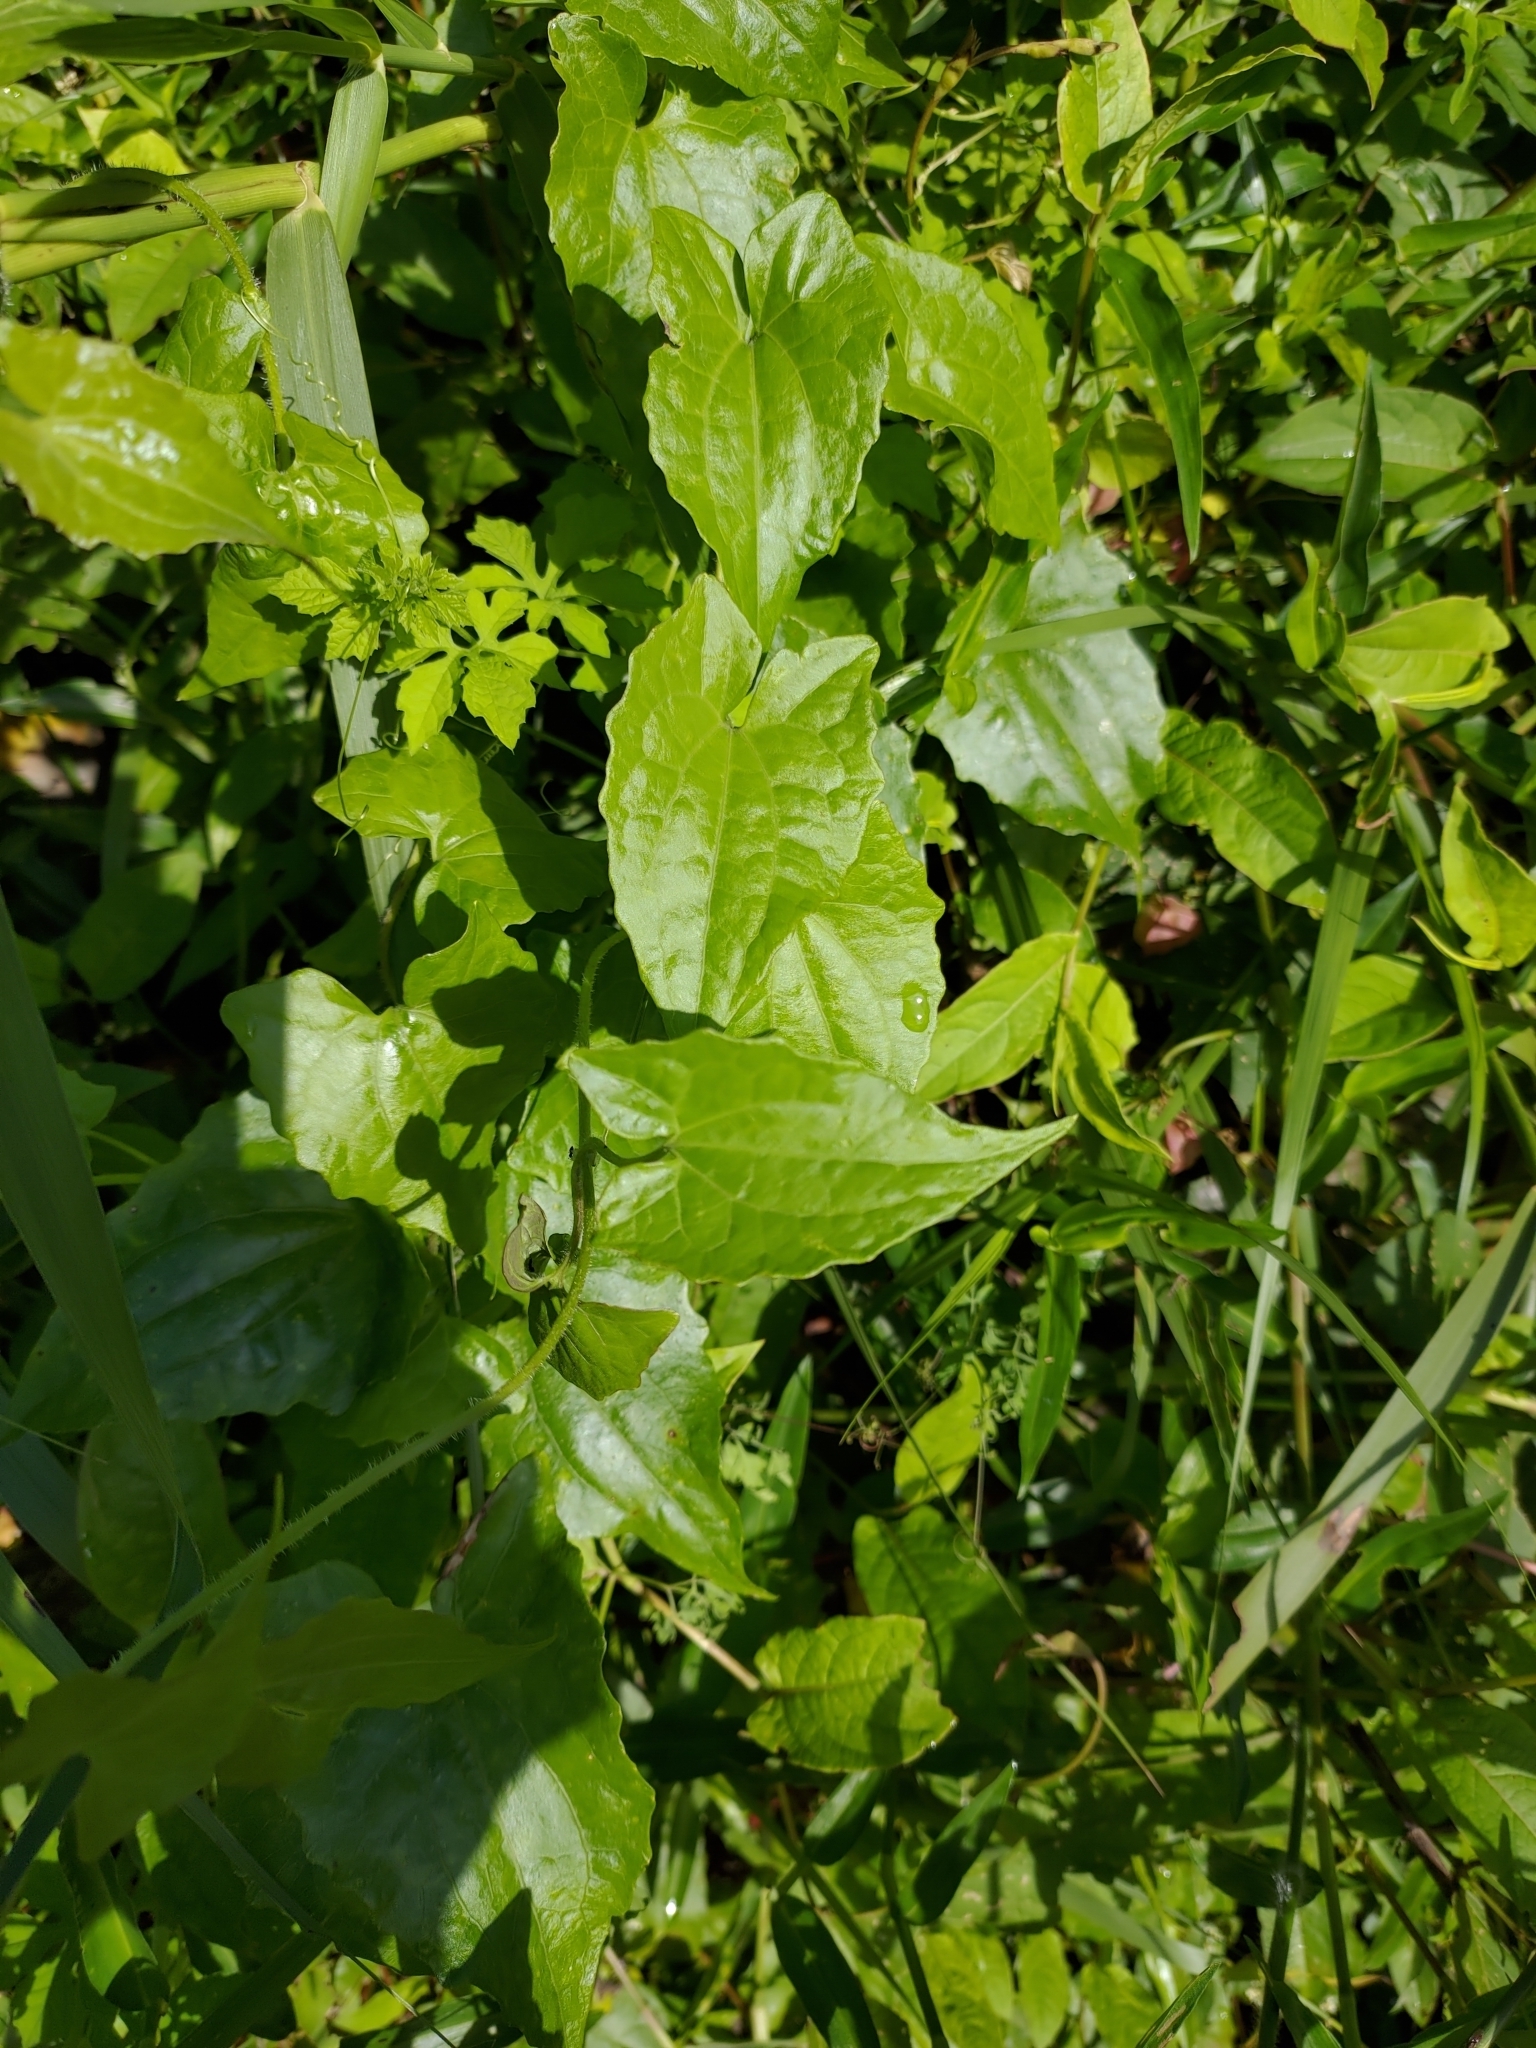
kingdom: Plantae
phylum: Tracheophyta
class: Magnoliopsida
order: Asterales
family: Asteraceae
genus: Mikania
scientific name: Mikania micrantha
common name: Mile-a-minute
